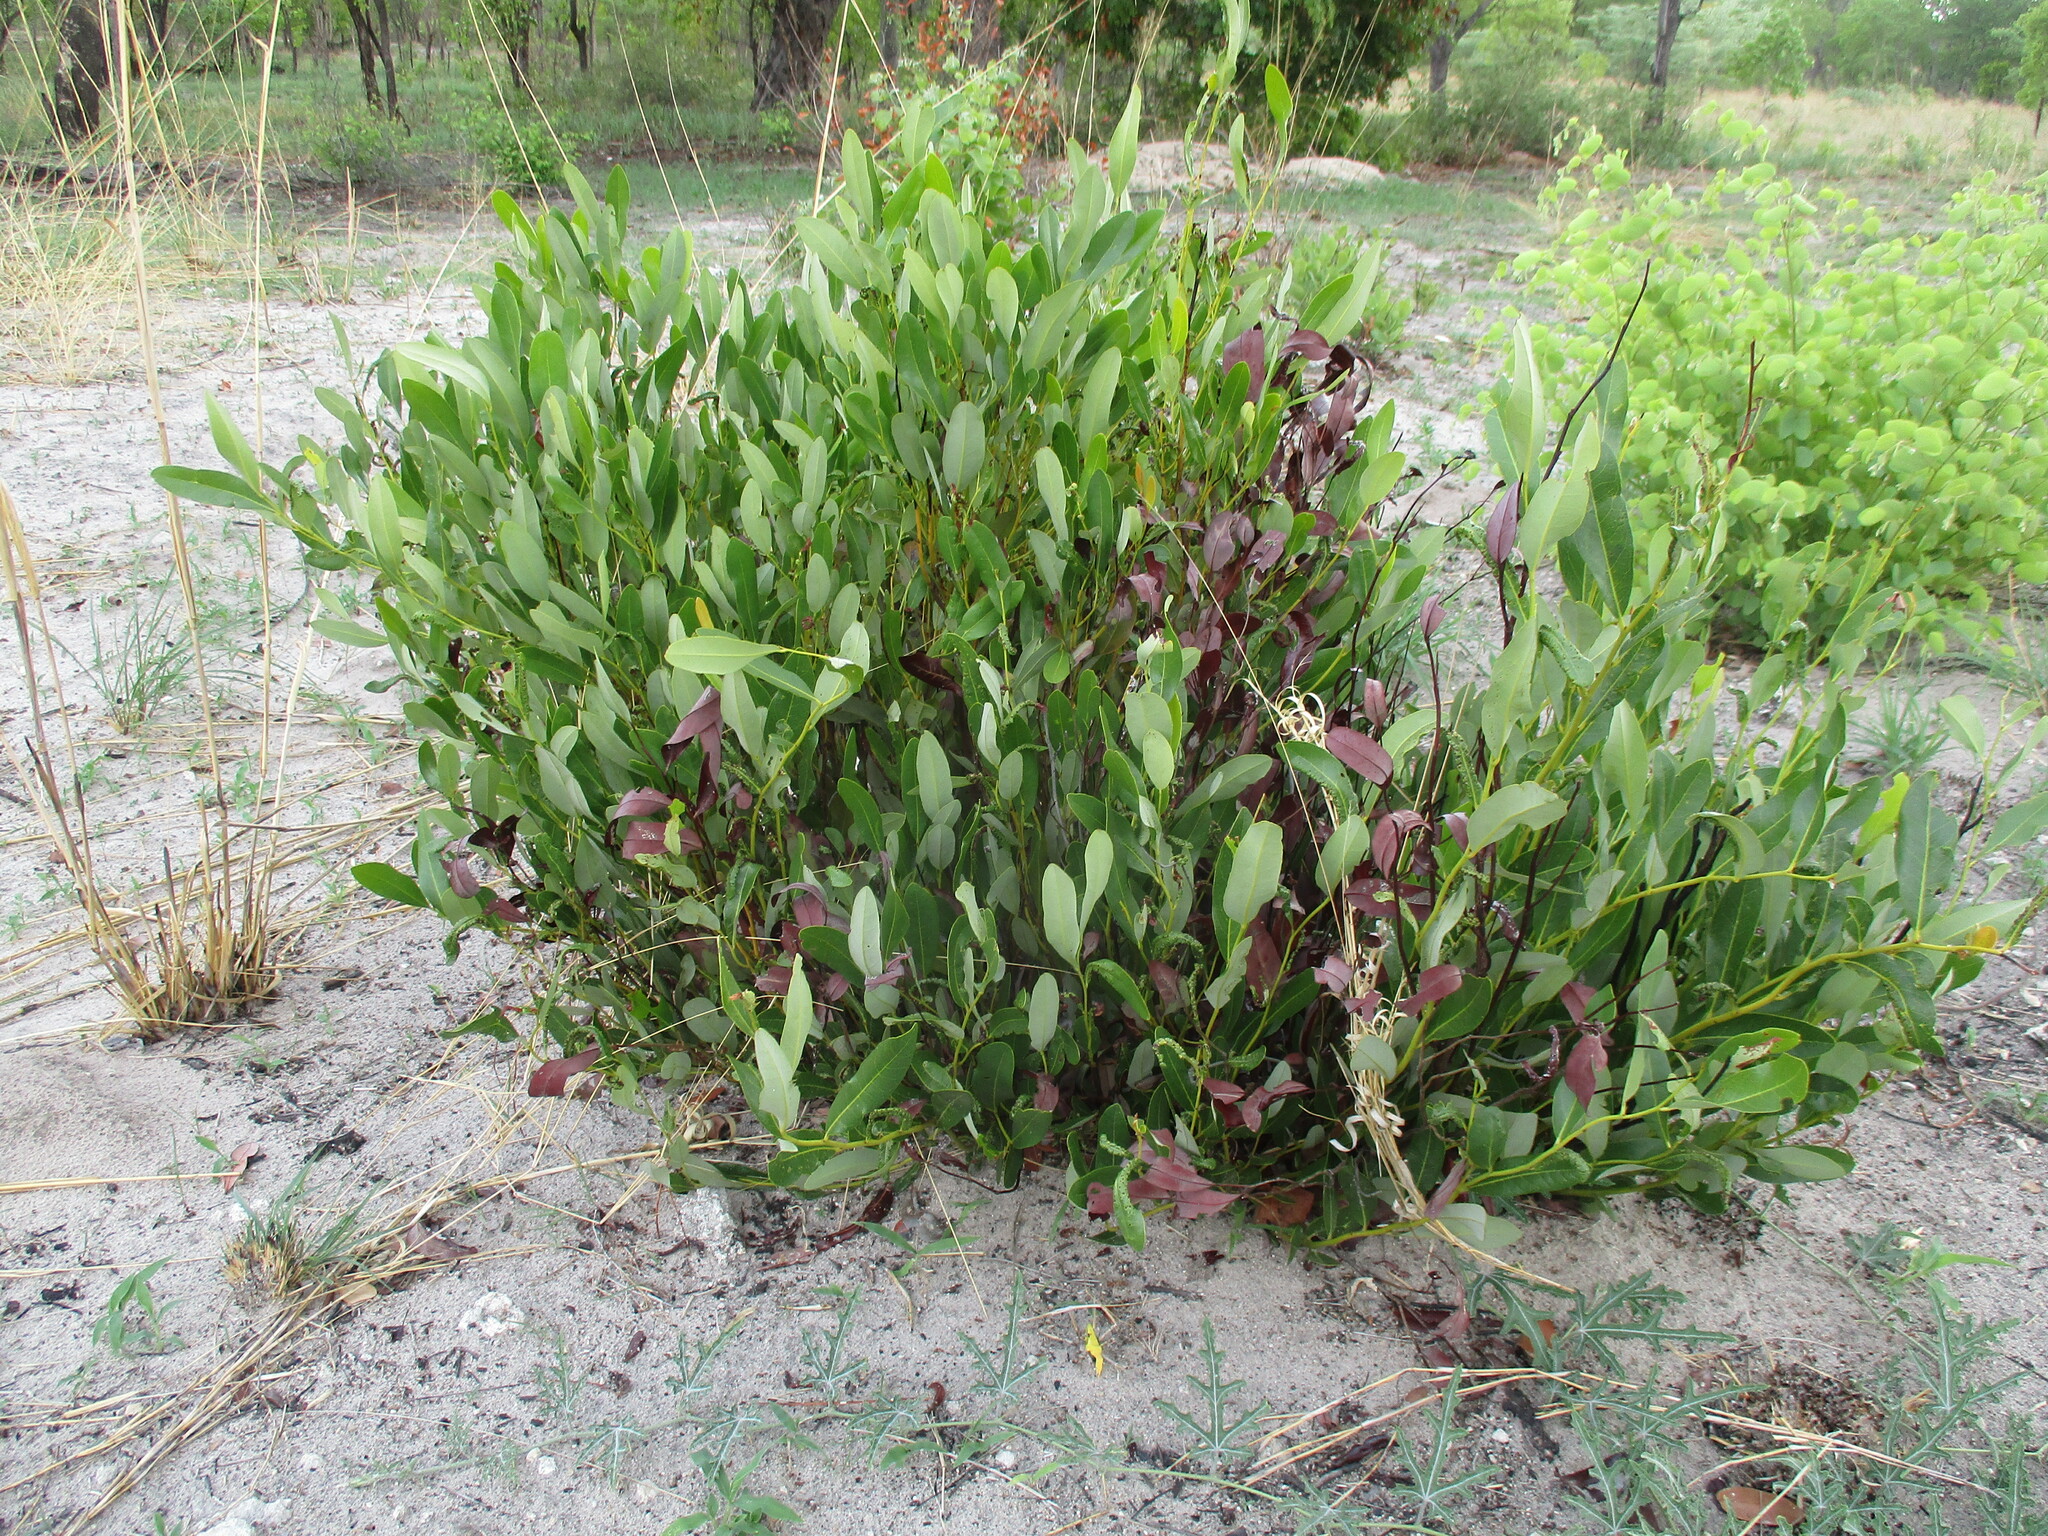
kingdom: Plantae
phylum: Tracheophyta
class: Magnoliopsida
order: Ericales
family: Ebenaceae
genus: Diospyros
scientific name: Diospyros chamaethamnus
